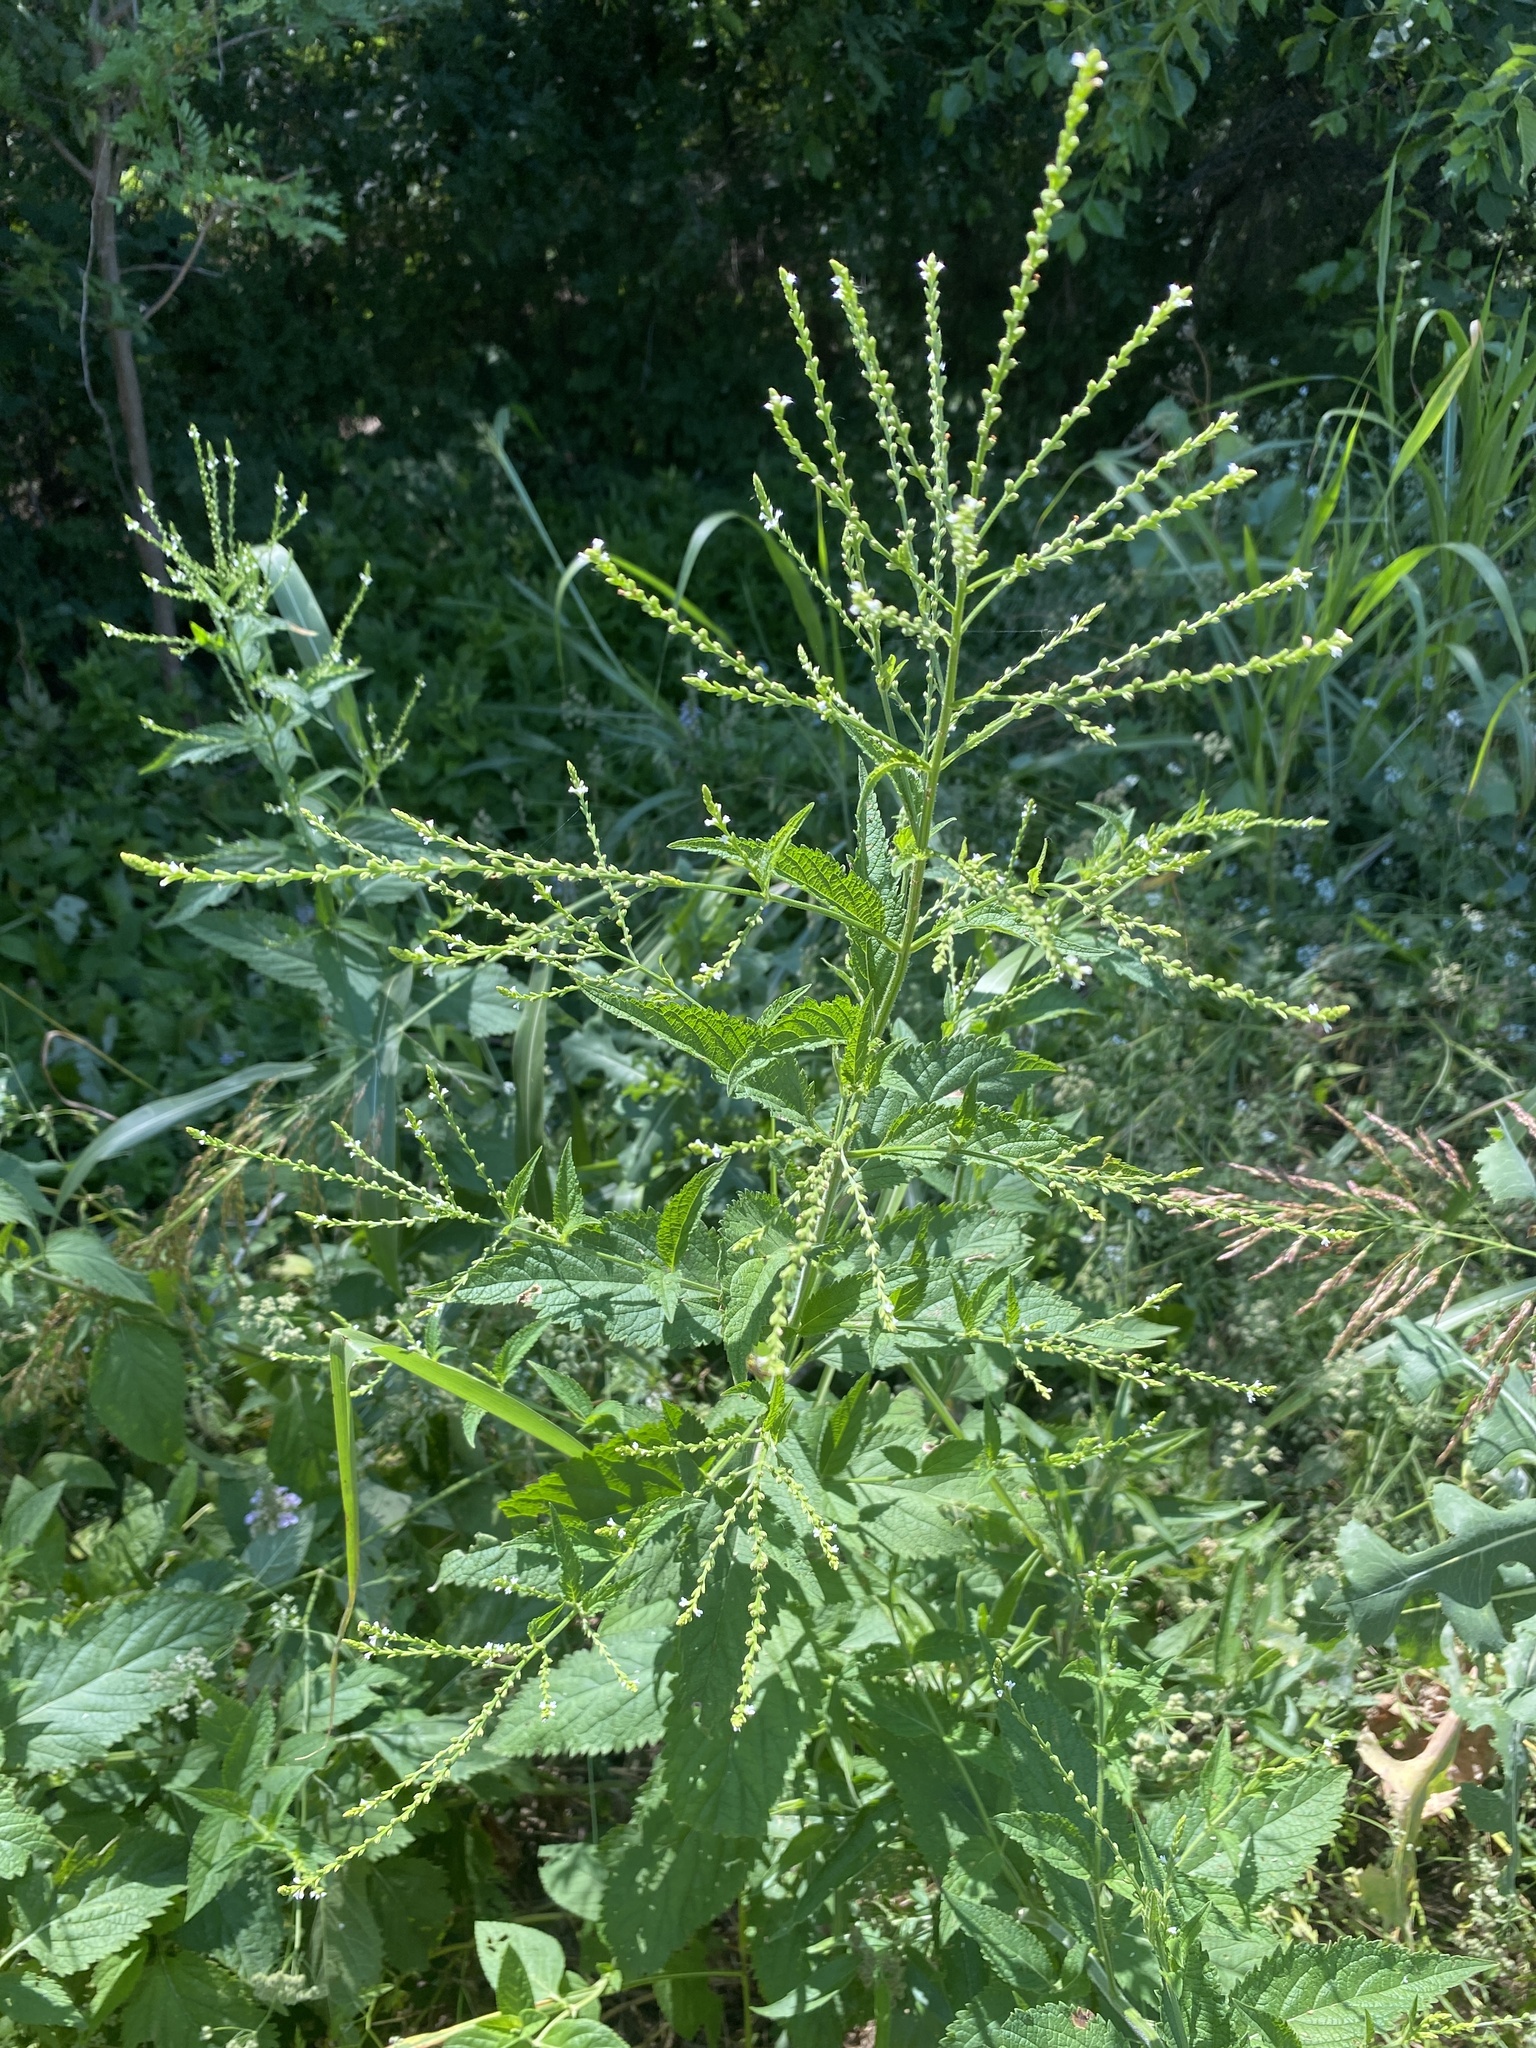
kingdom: Plantae
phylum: Tracheophyta
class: Magnoliopsida
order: Lamiales
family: Verbenaceae
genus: Verbena
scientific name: Verbena urticifolia
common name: Nettle-leaved vervain
